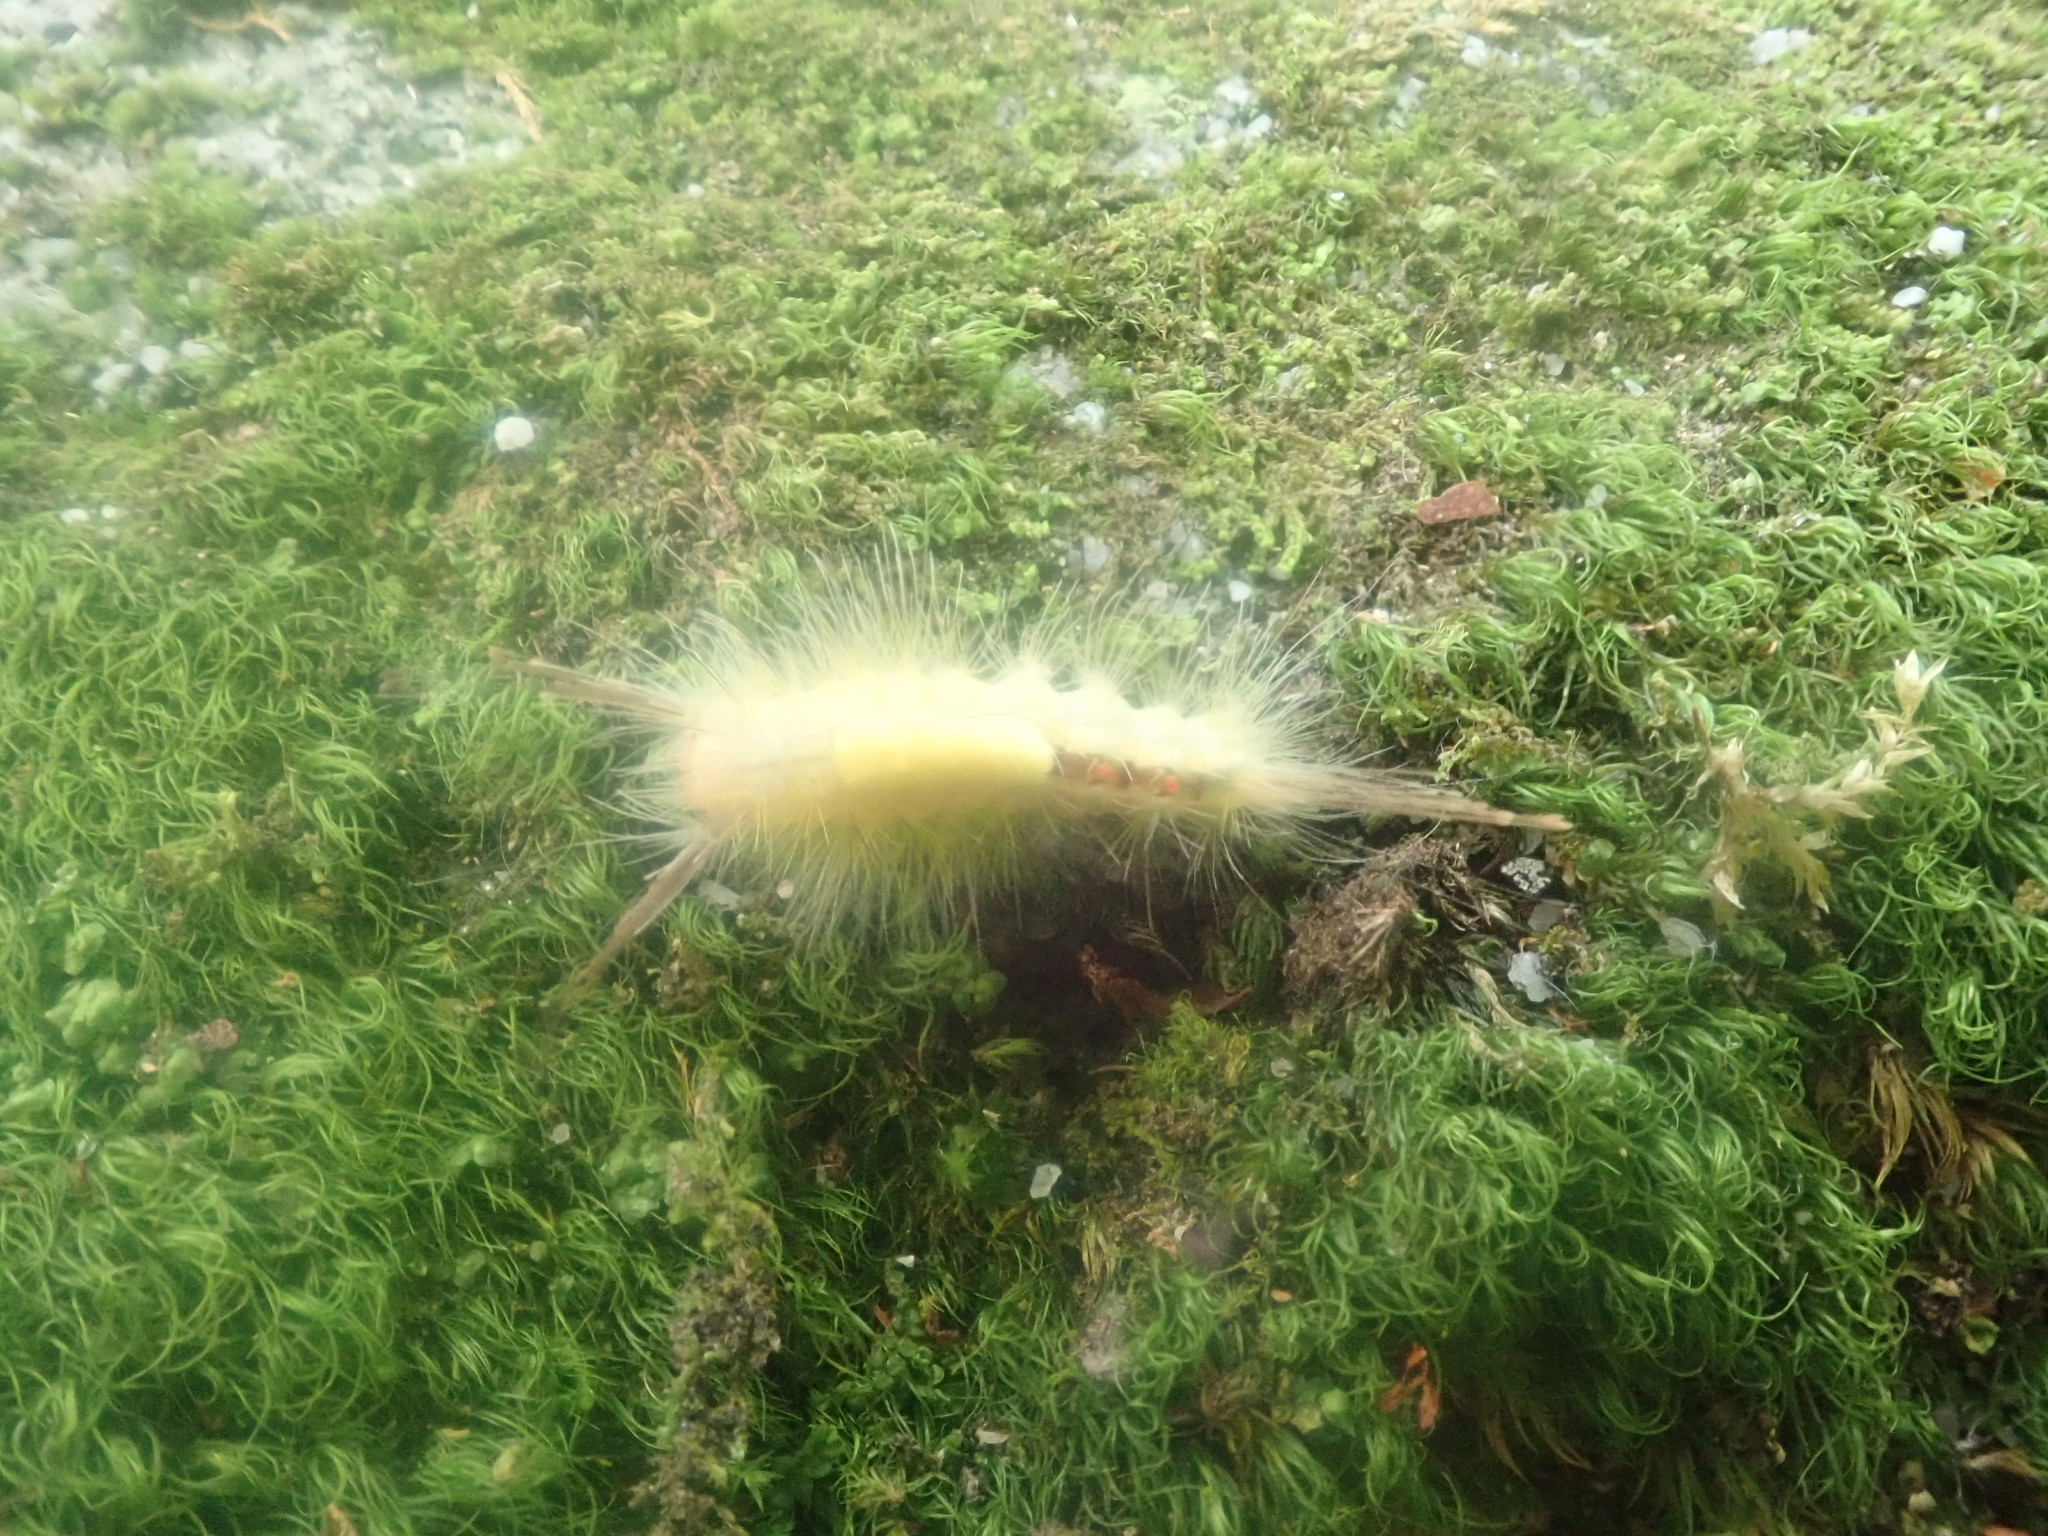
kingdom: Animalia
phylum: Arthropoda
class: Insecta
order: Lepidoptera
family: Erebidae
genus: Orgyia
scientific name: Orgyia leucostigma
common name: White-marked tussock moth
